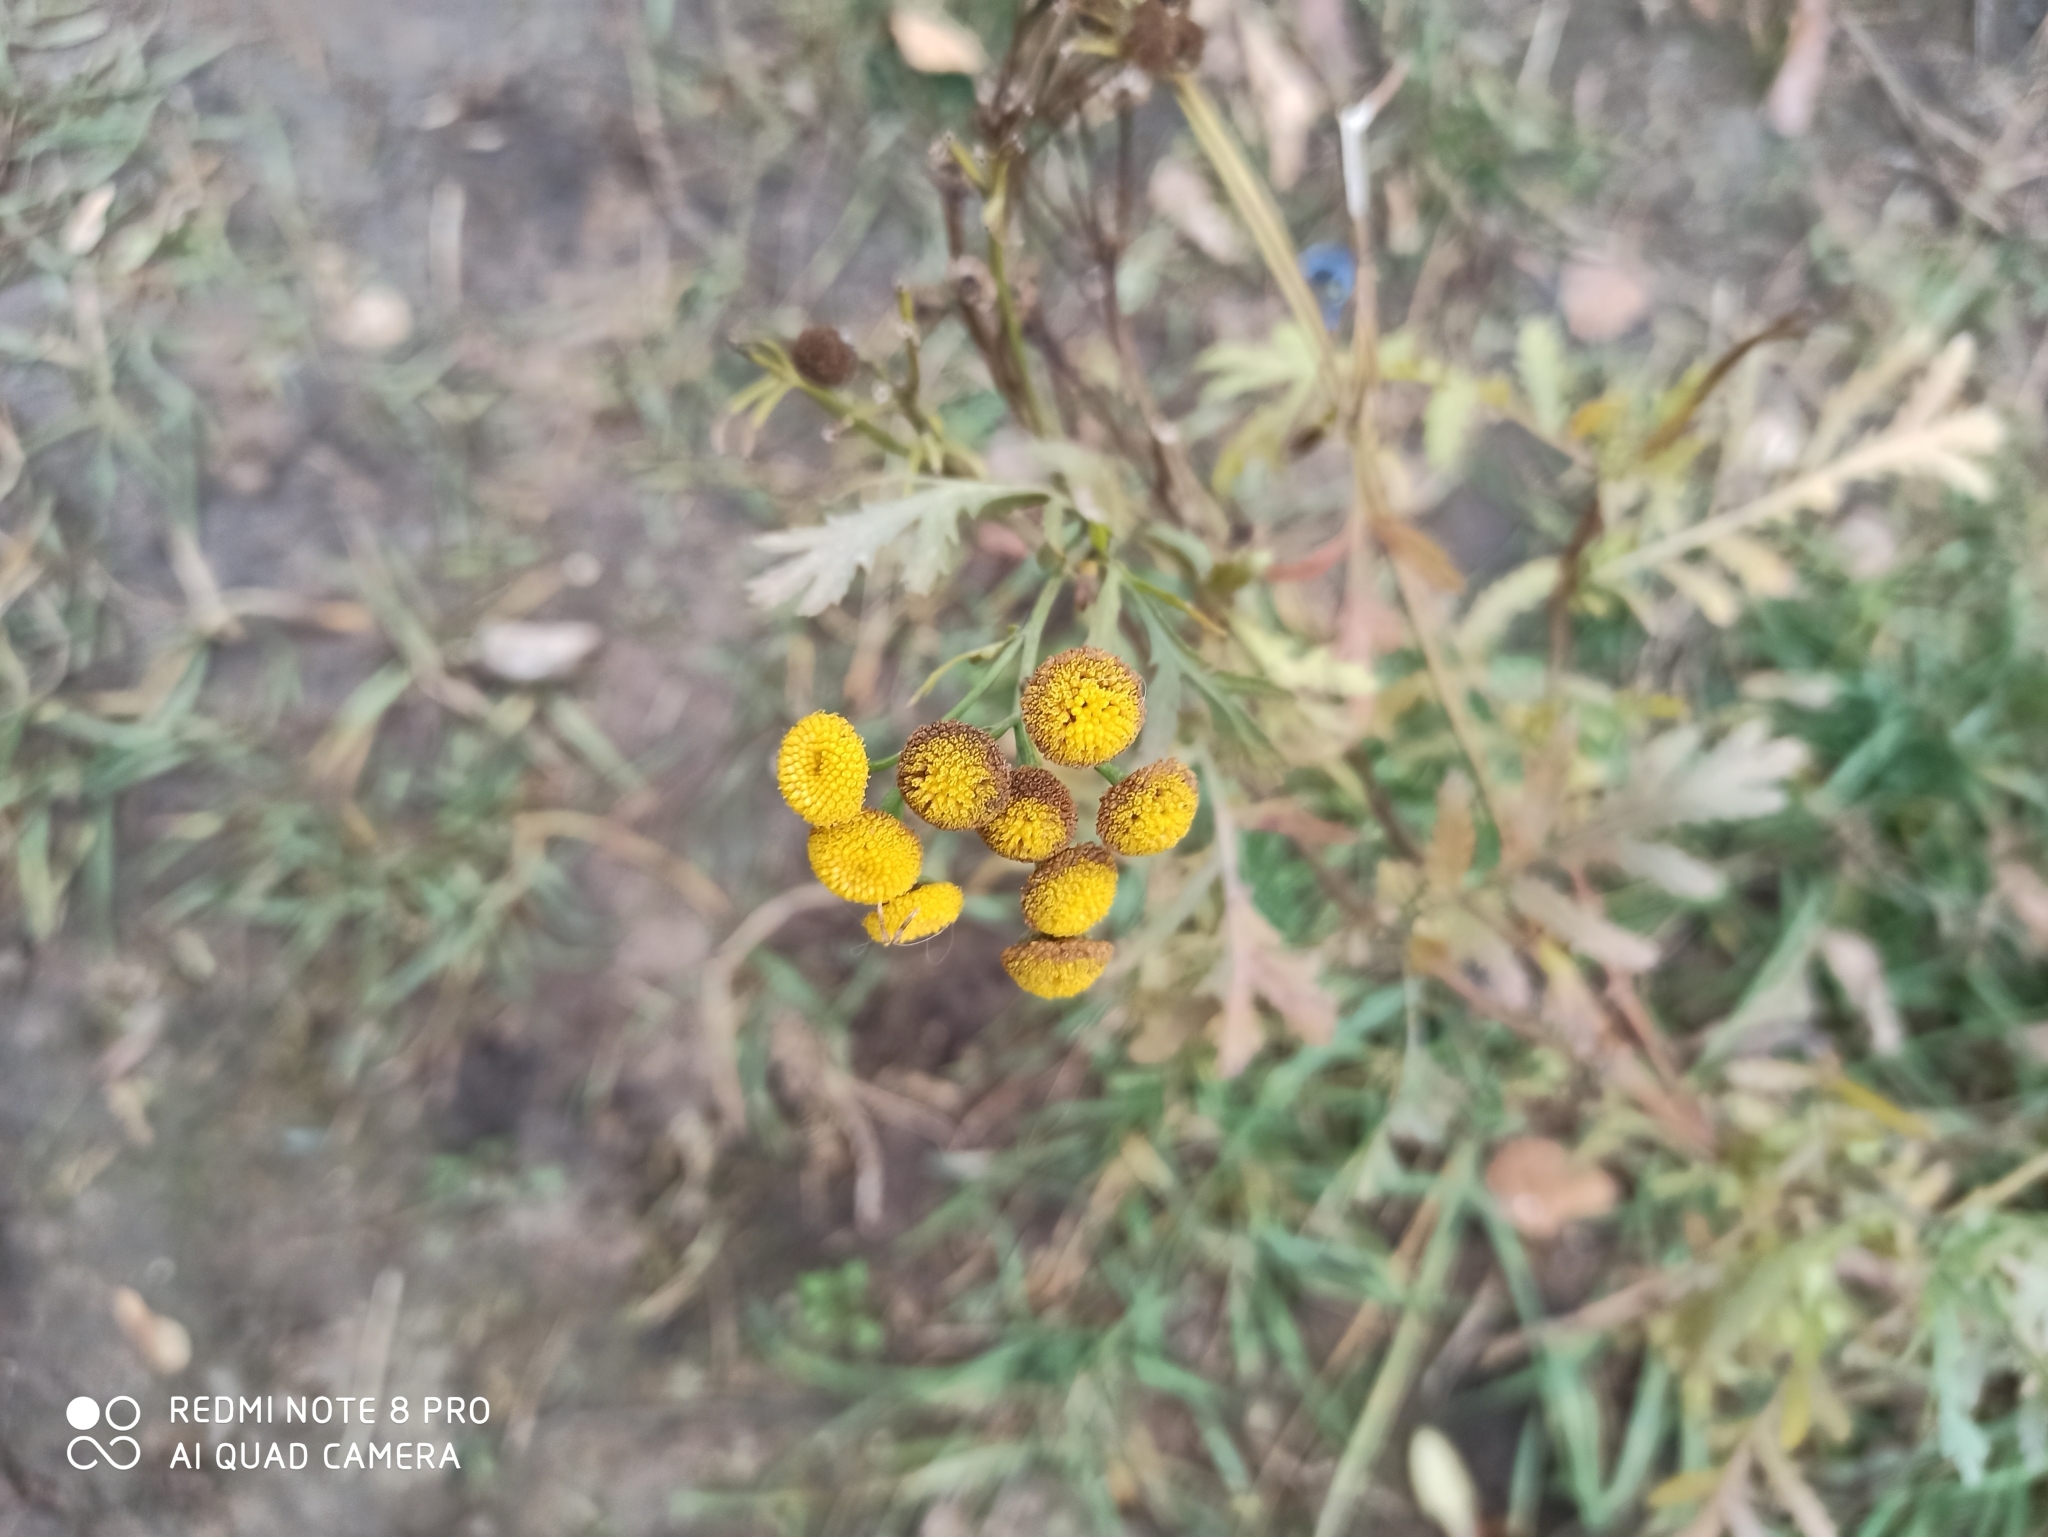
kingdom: Plantae
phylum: Tracheophyta
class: Magnoliopsida
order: Asterales
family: Asteraceae
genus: Tanacetum
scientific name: Tanacetum vulgare
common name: Common tansy
